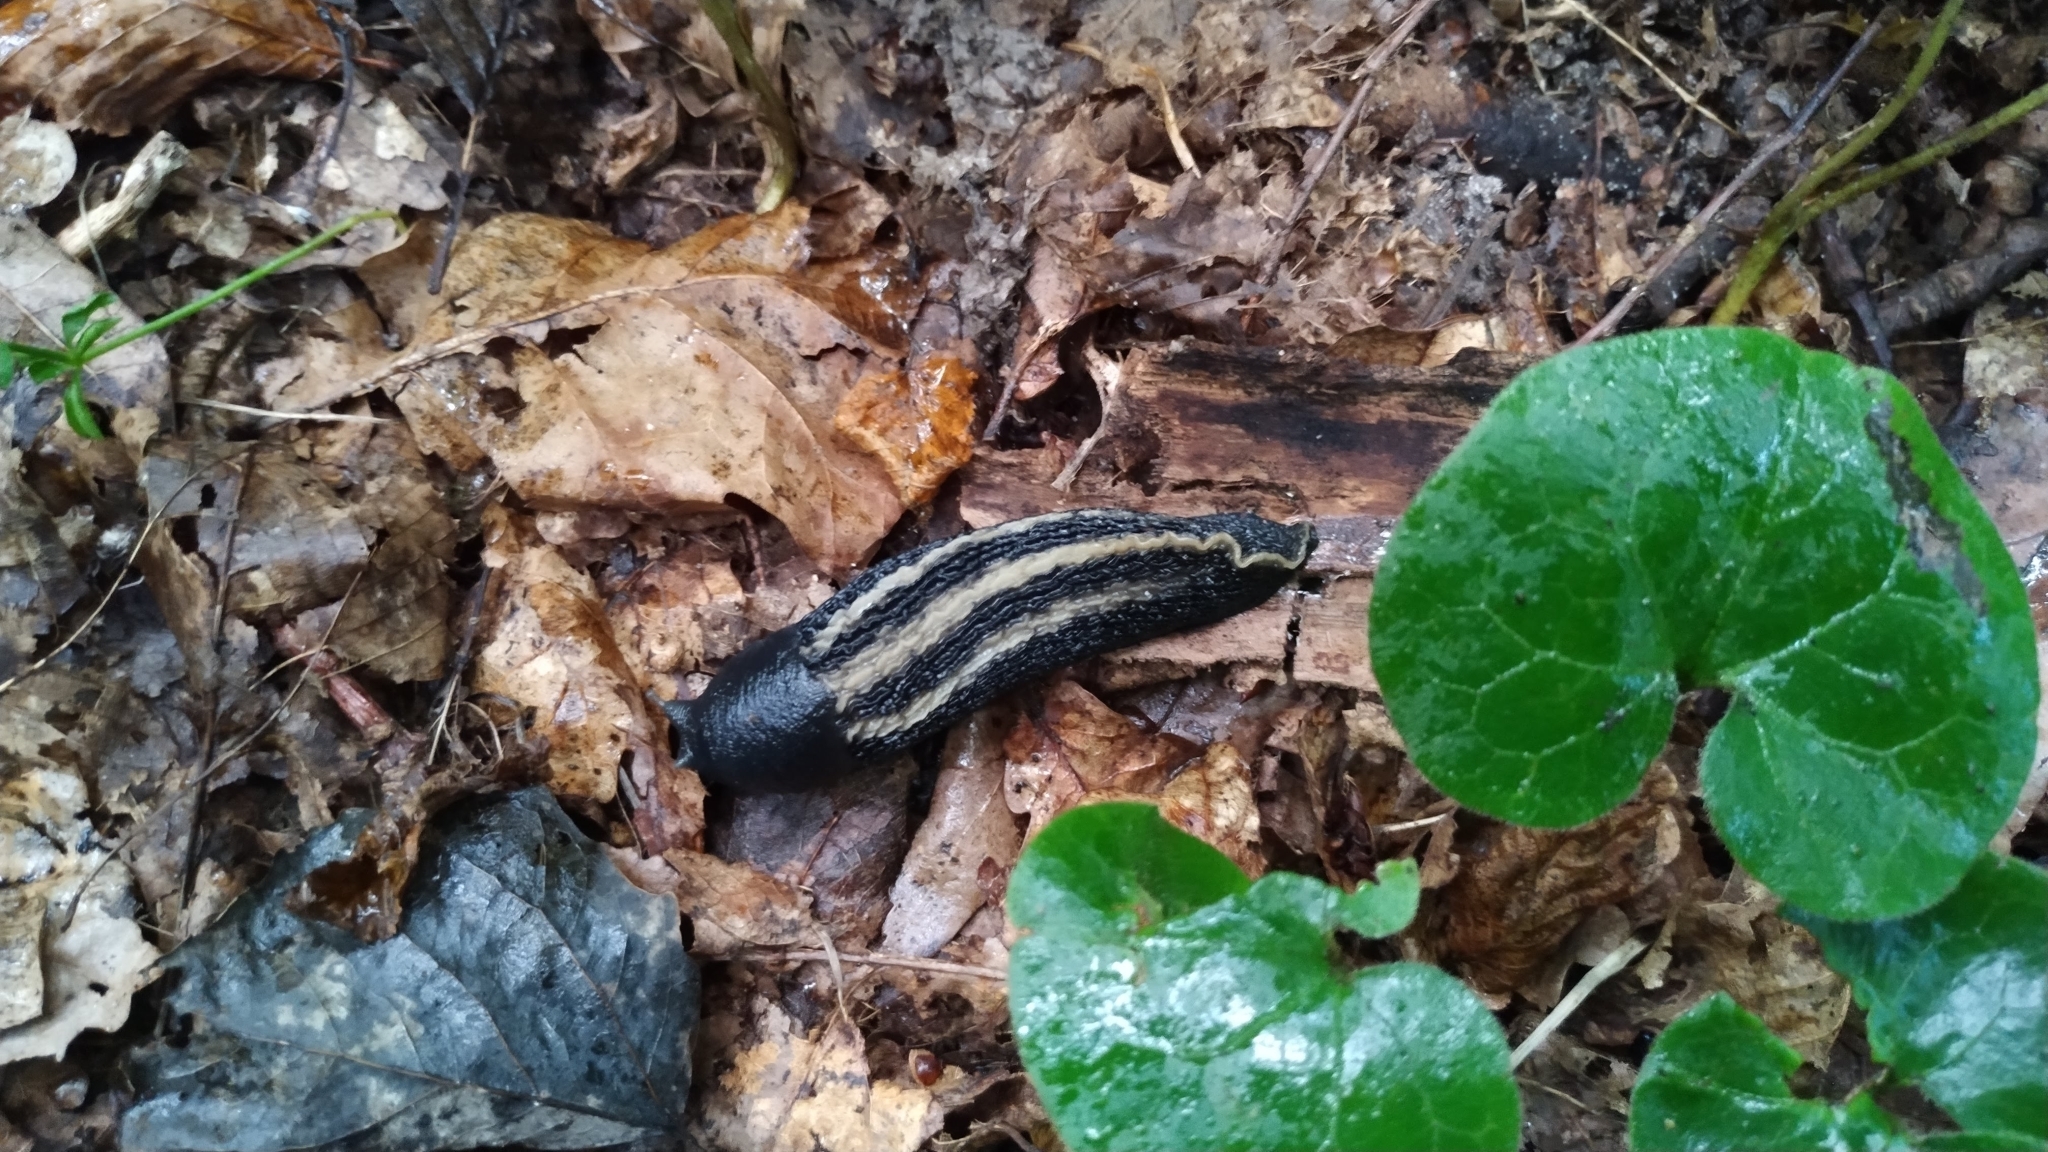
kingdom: Animalia
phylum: Mollusca
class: Gastropoda
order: Stylommatophora
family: Limacidae
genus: Limax
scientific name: Limax cinereoniger
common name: Ash-black slug
